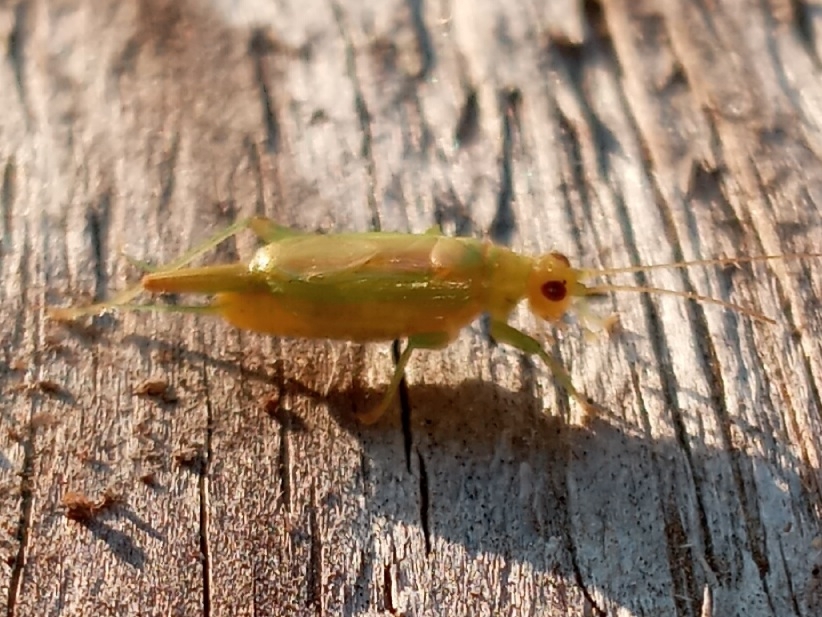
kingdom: Animalia
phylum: Arthropoda
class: Insecta
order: Orthoptera
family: Trigonidiidae
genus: Cyrtoxipha
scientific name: Cyrtoxipha columbiana
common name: Columbian trig
